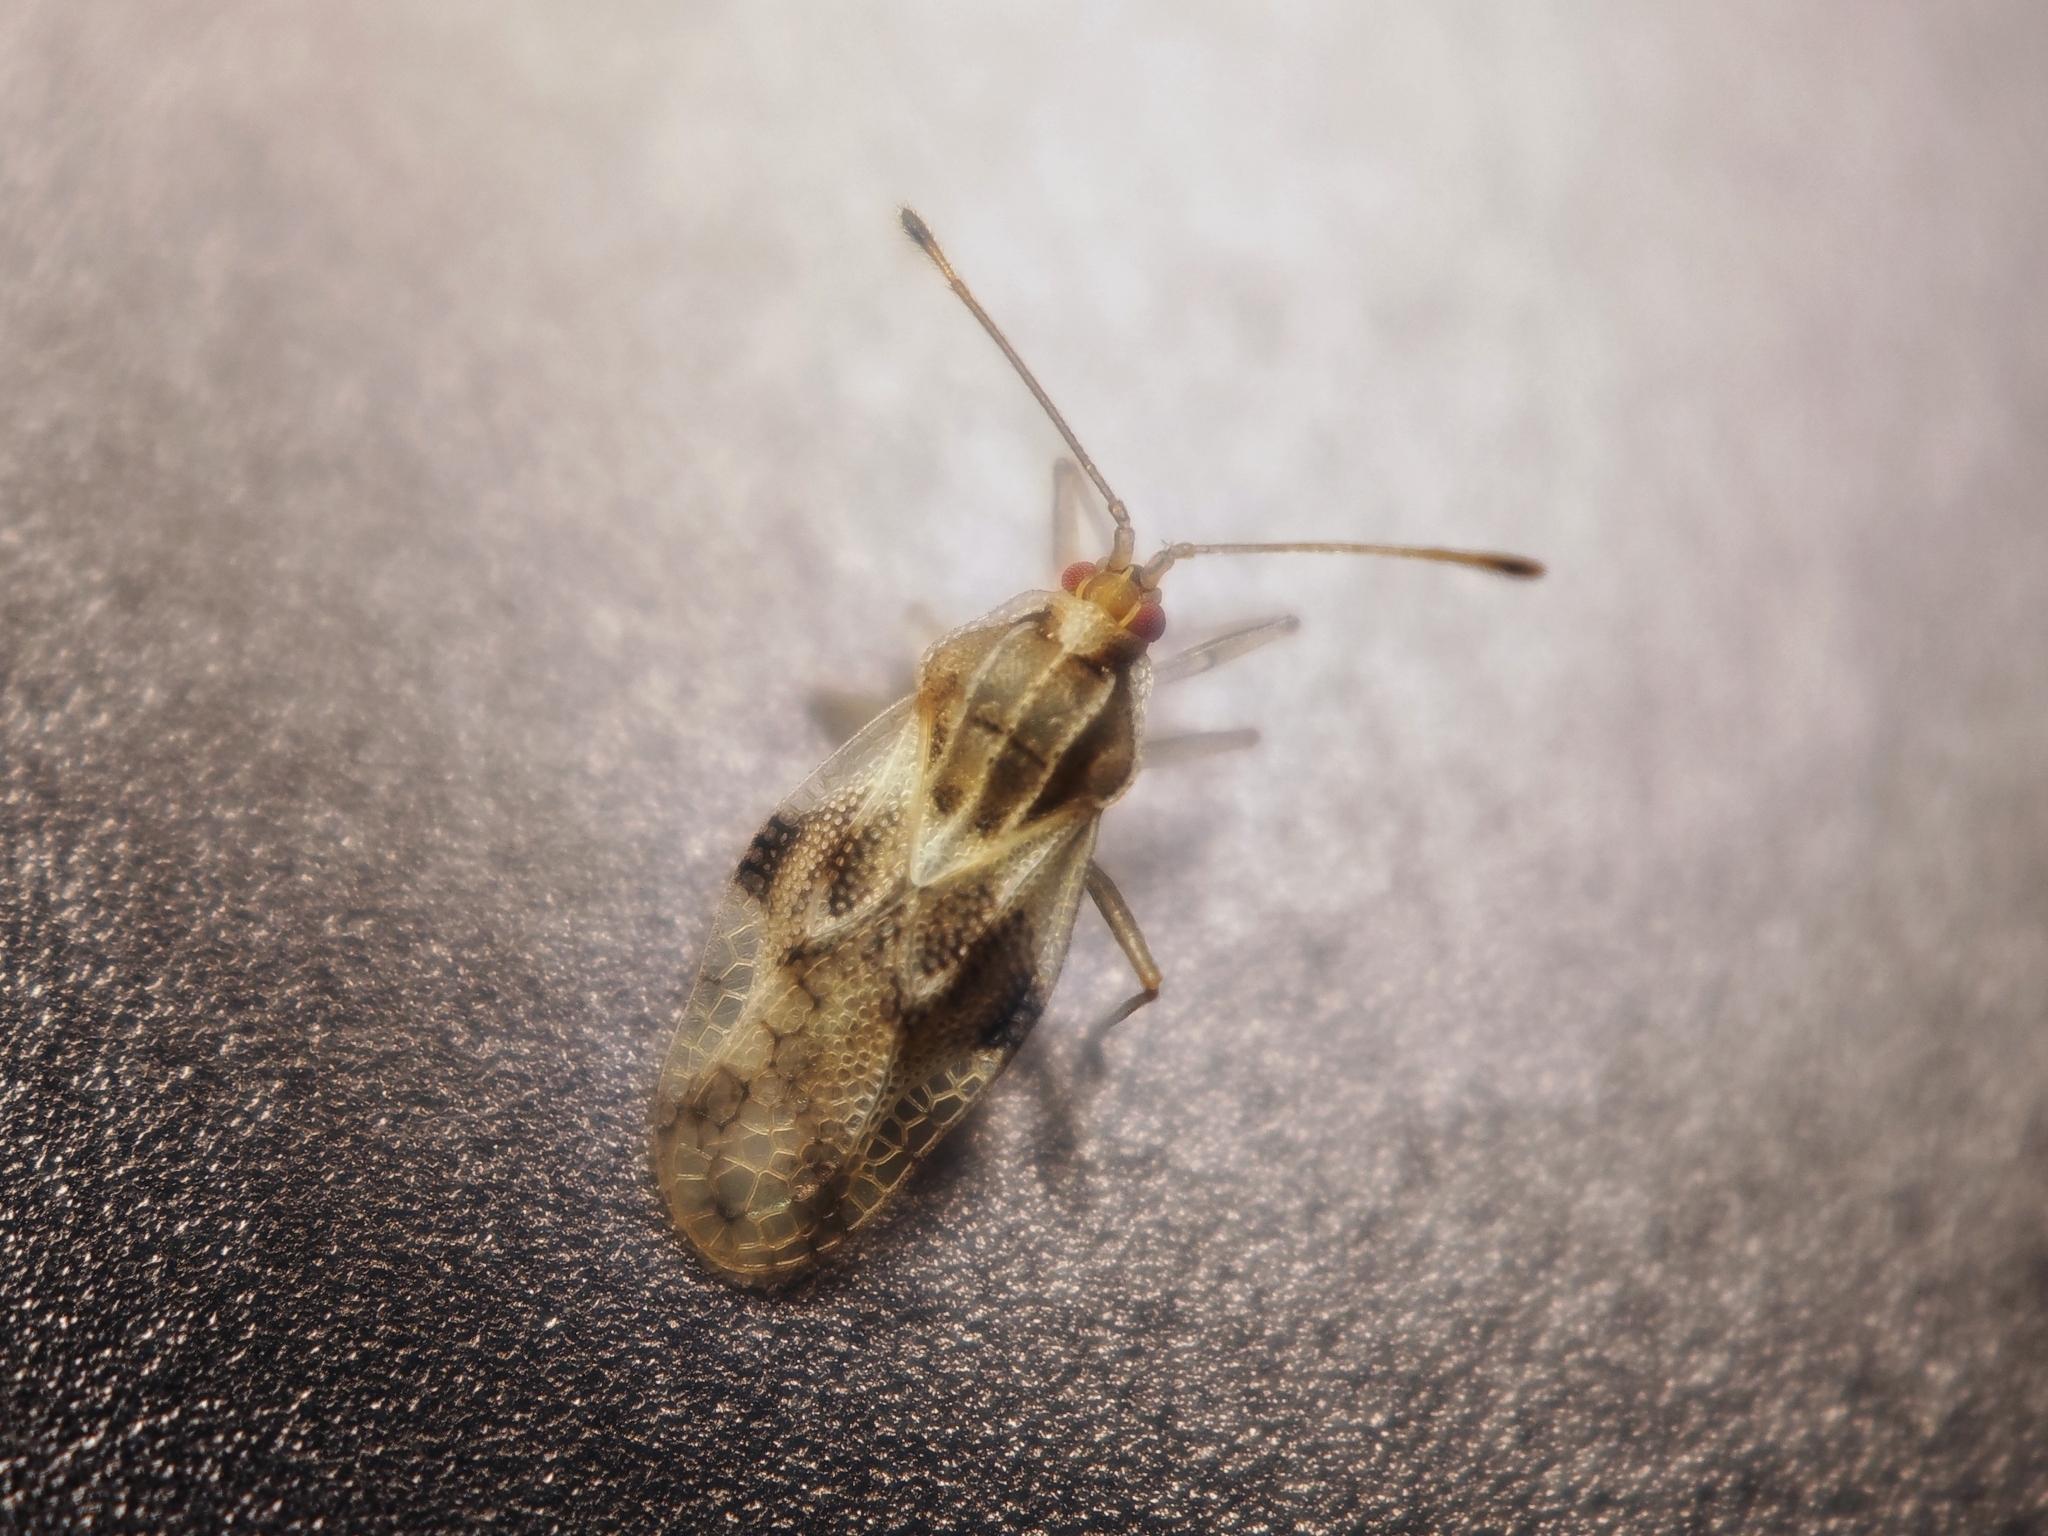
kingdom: Animalia
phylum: Arthropoda
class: Insecta
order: Hemiptera
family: Tingidae
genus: Ixia
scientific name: Ixia populi
